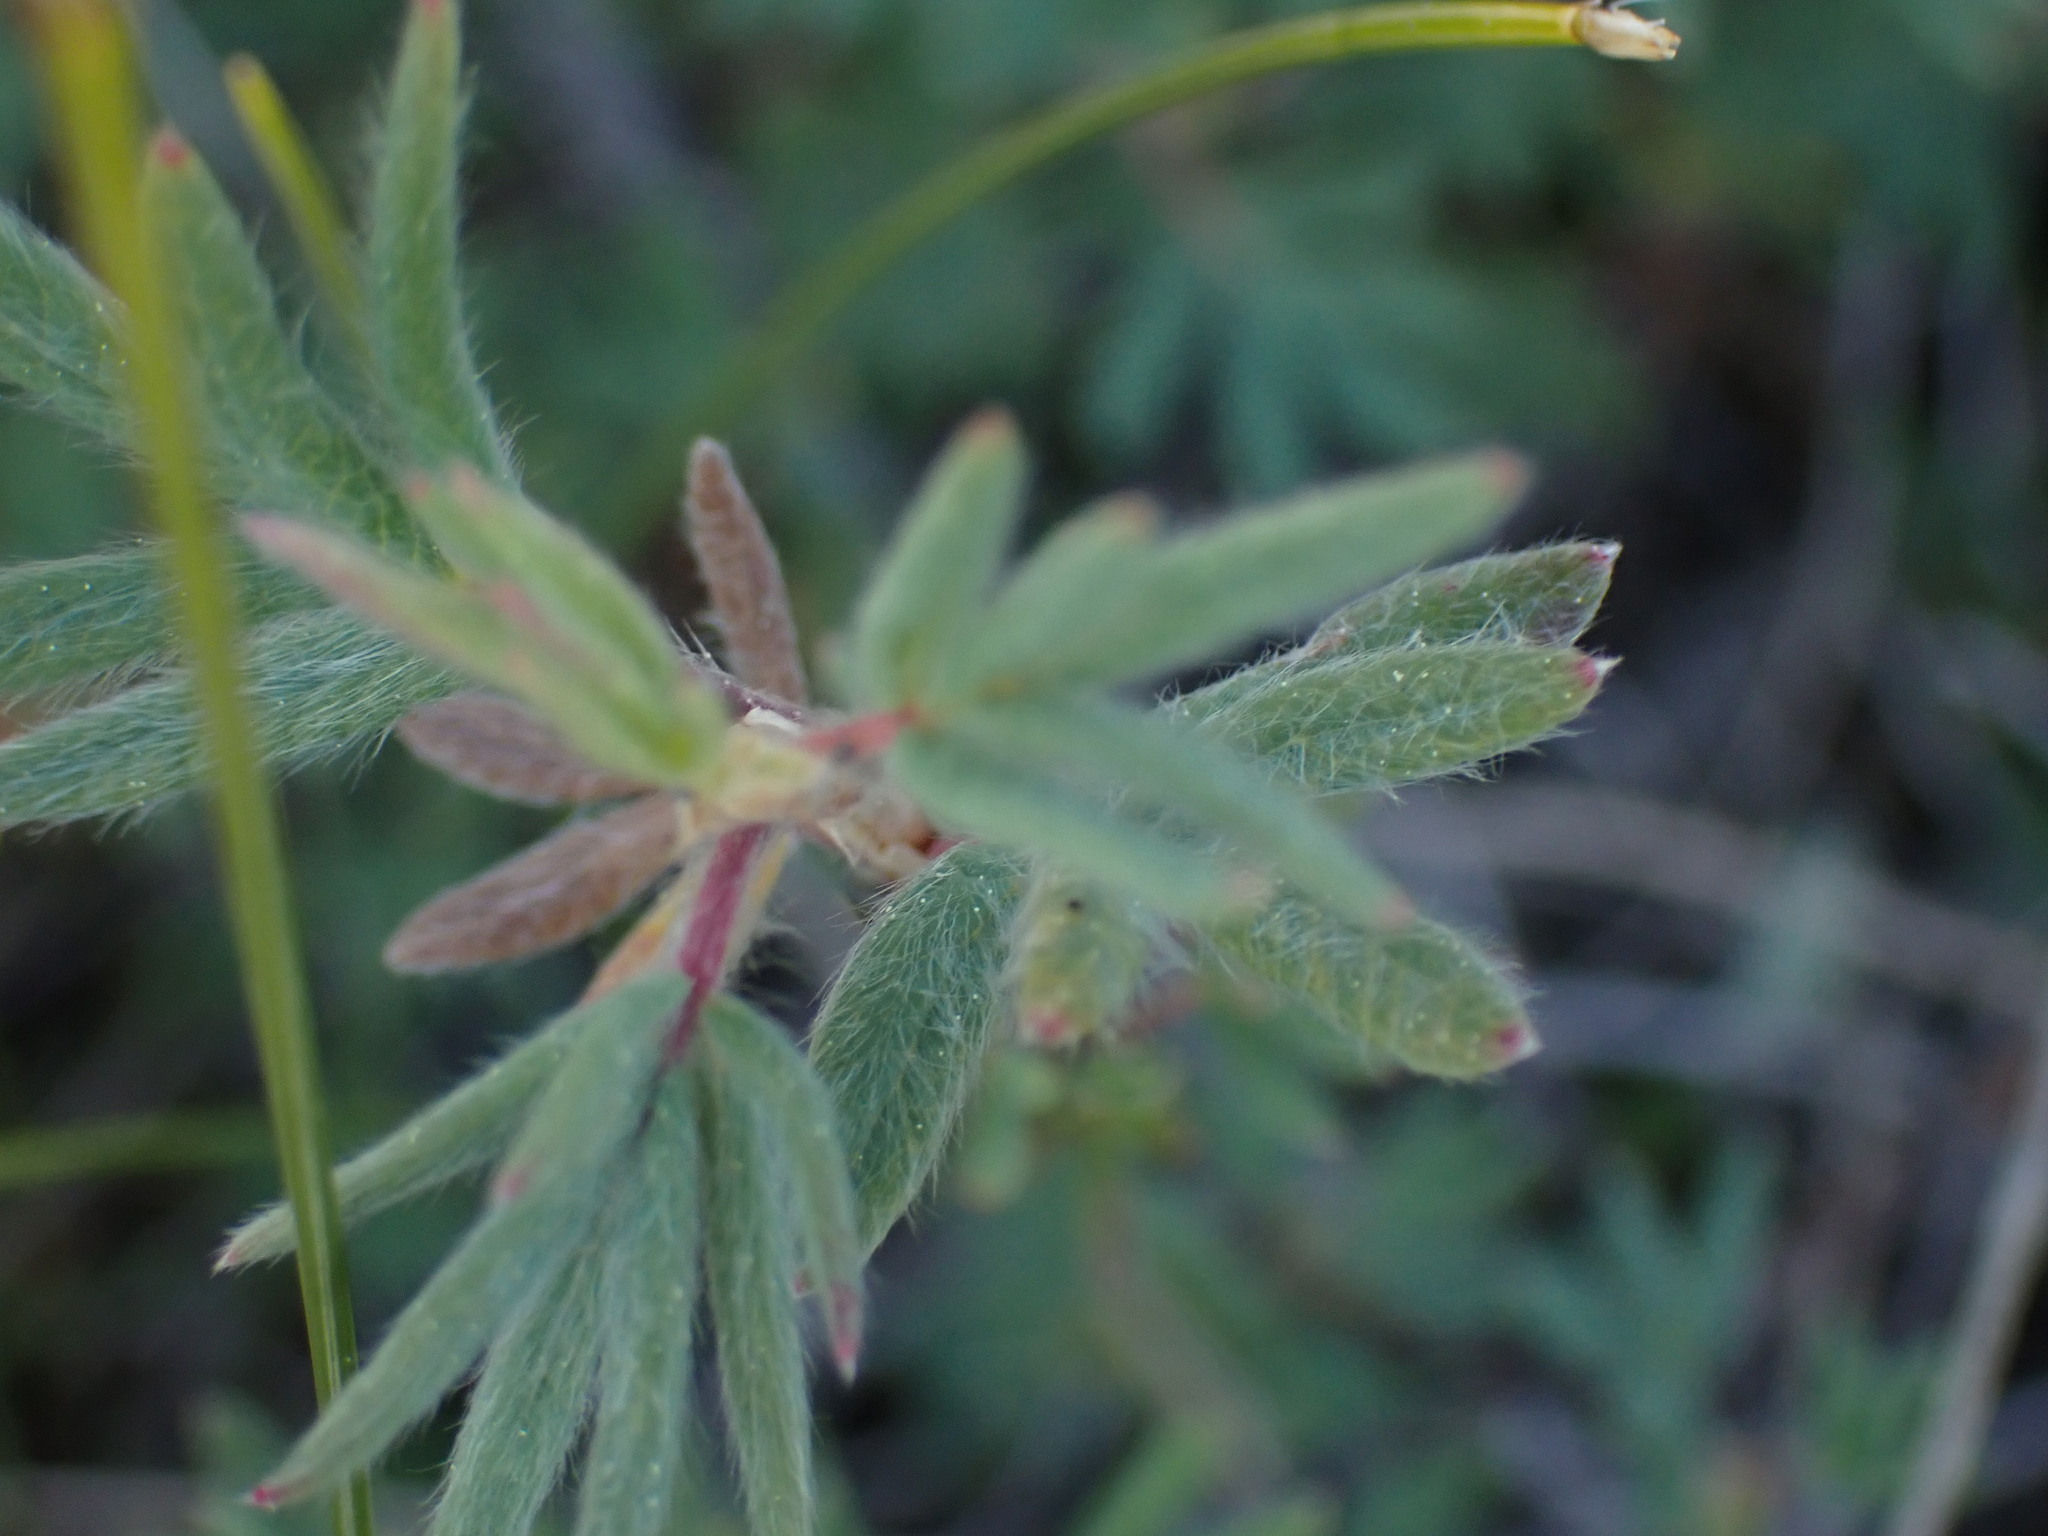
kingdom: Plantae
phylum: Tracheophyta
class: Magnoliopsida
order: Rosales
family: Rosaceae
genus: Dasiphora
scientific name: Dasiphora fruticosa
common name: Shrubby cinquefoil
